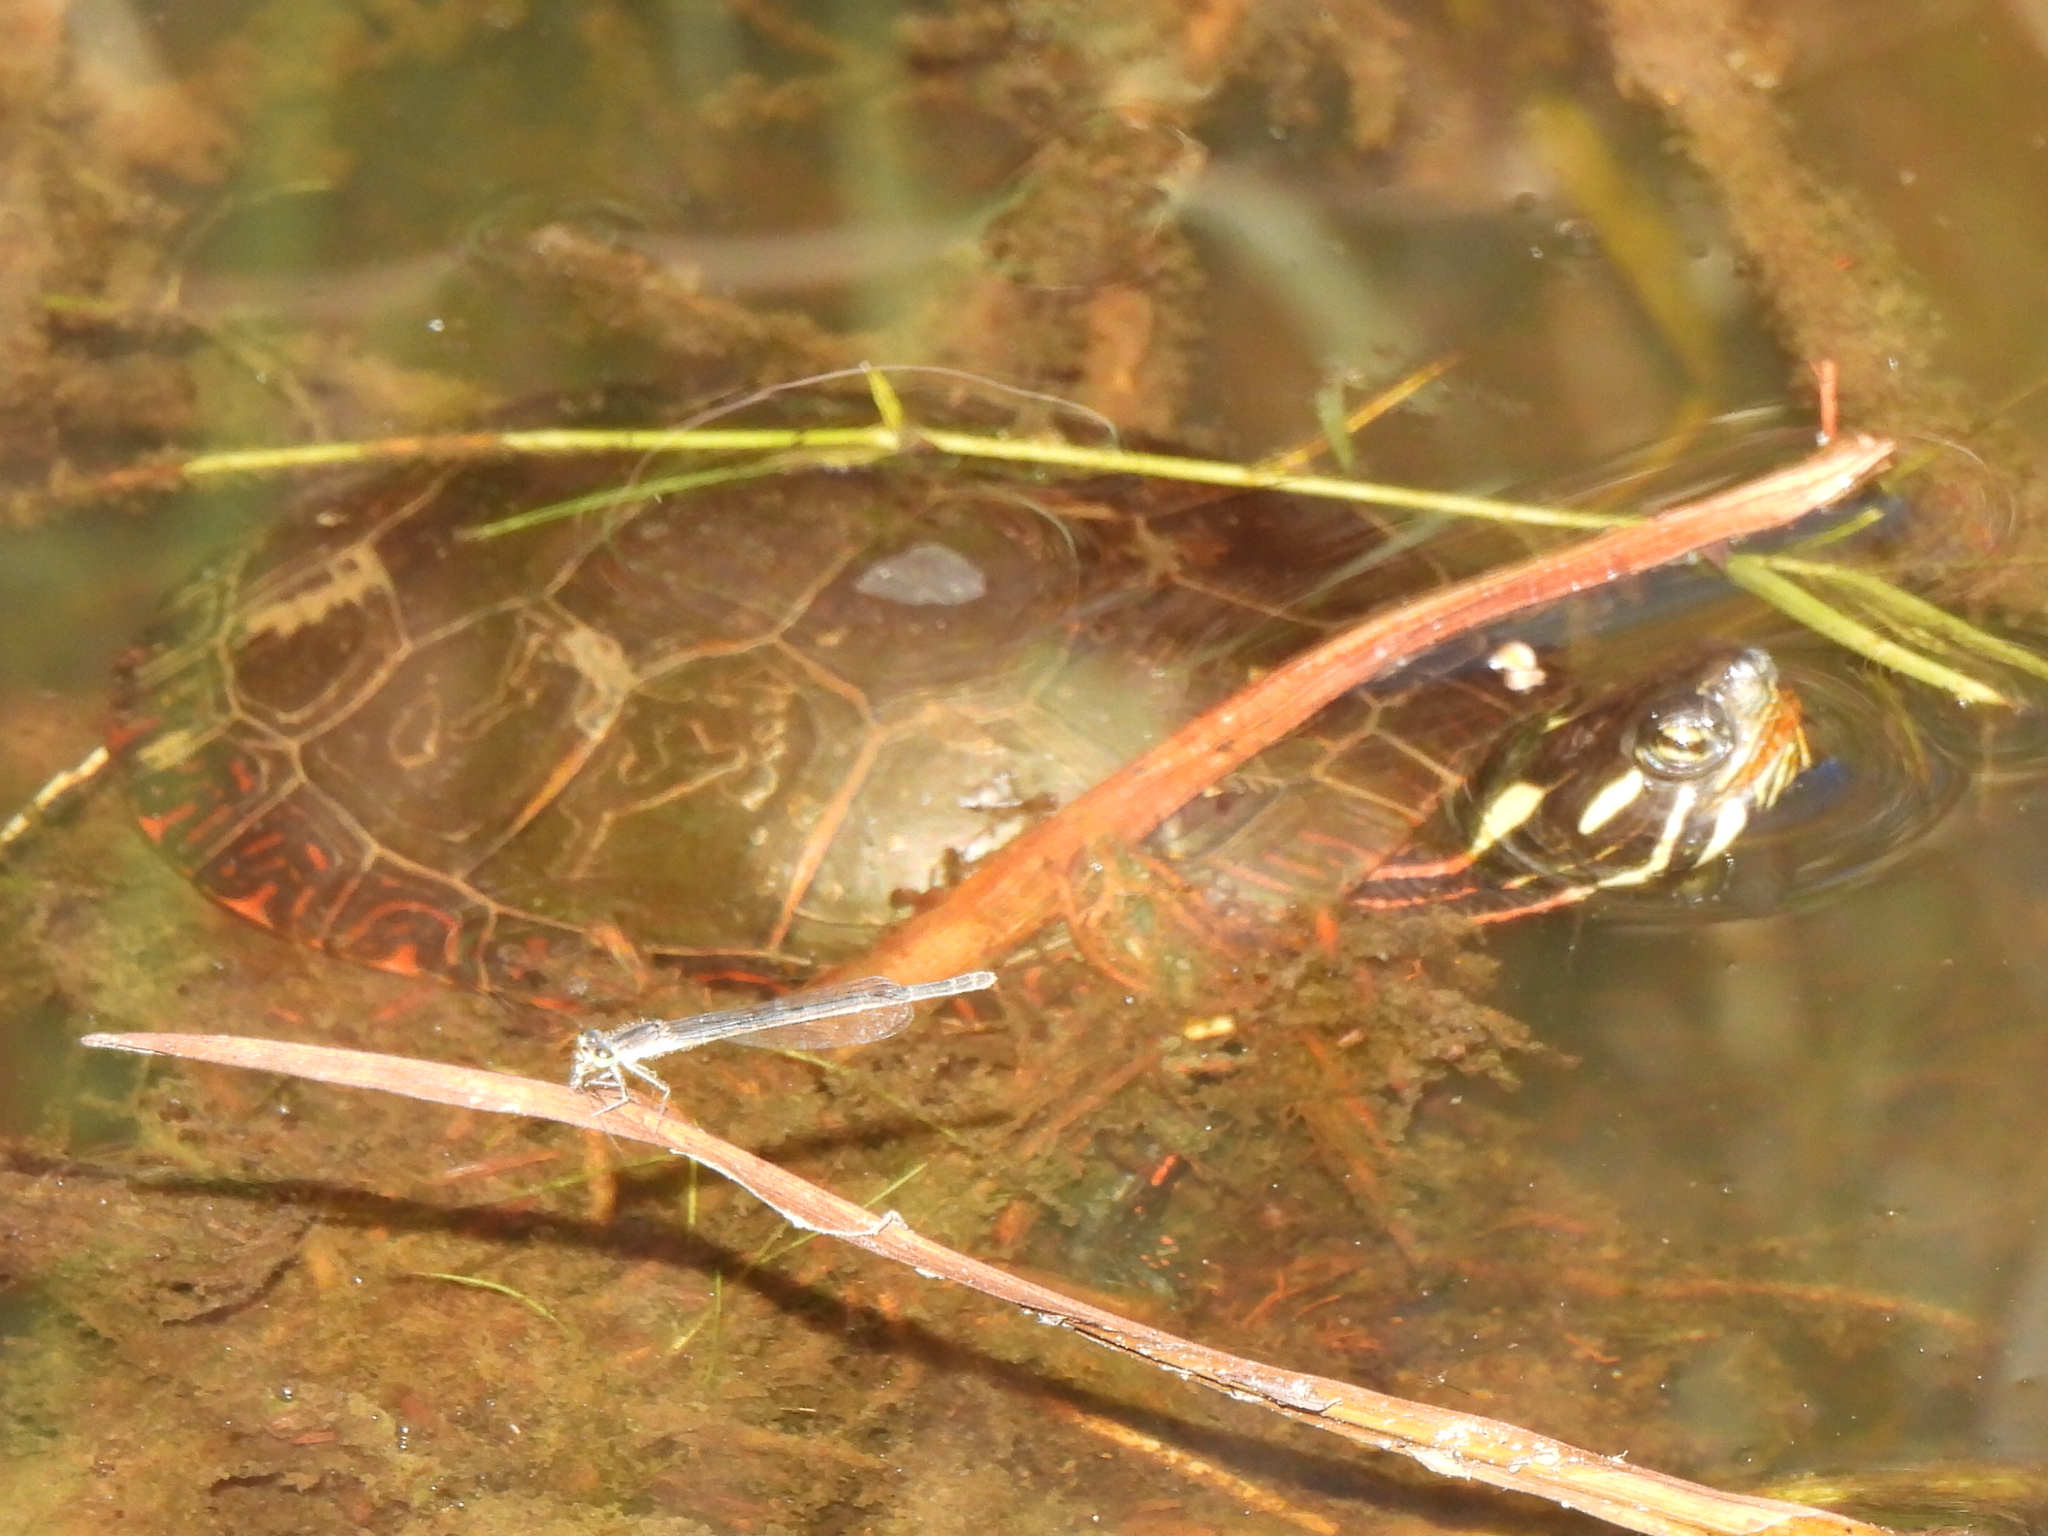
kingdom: Animalia
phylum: Chordata
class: Testudines
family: Emydidae
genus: Chrysemys
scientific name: Chrysemys picta
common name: Painted turtle
